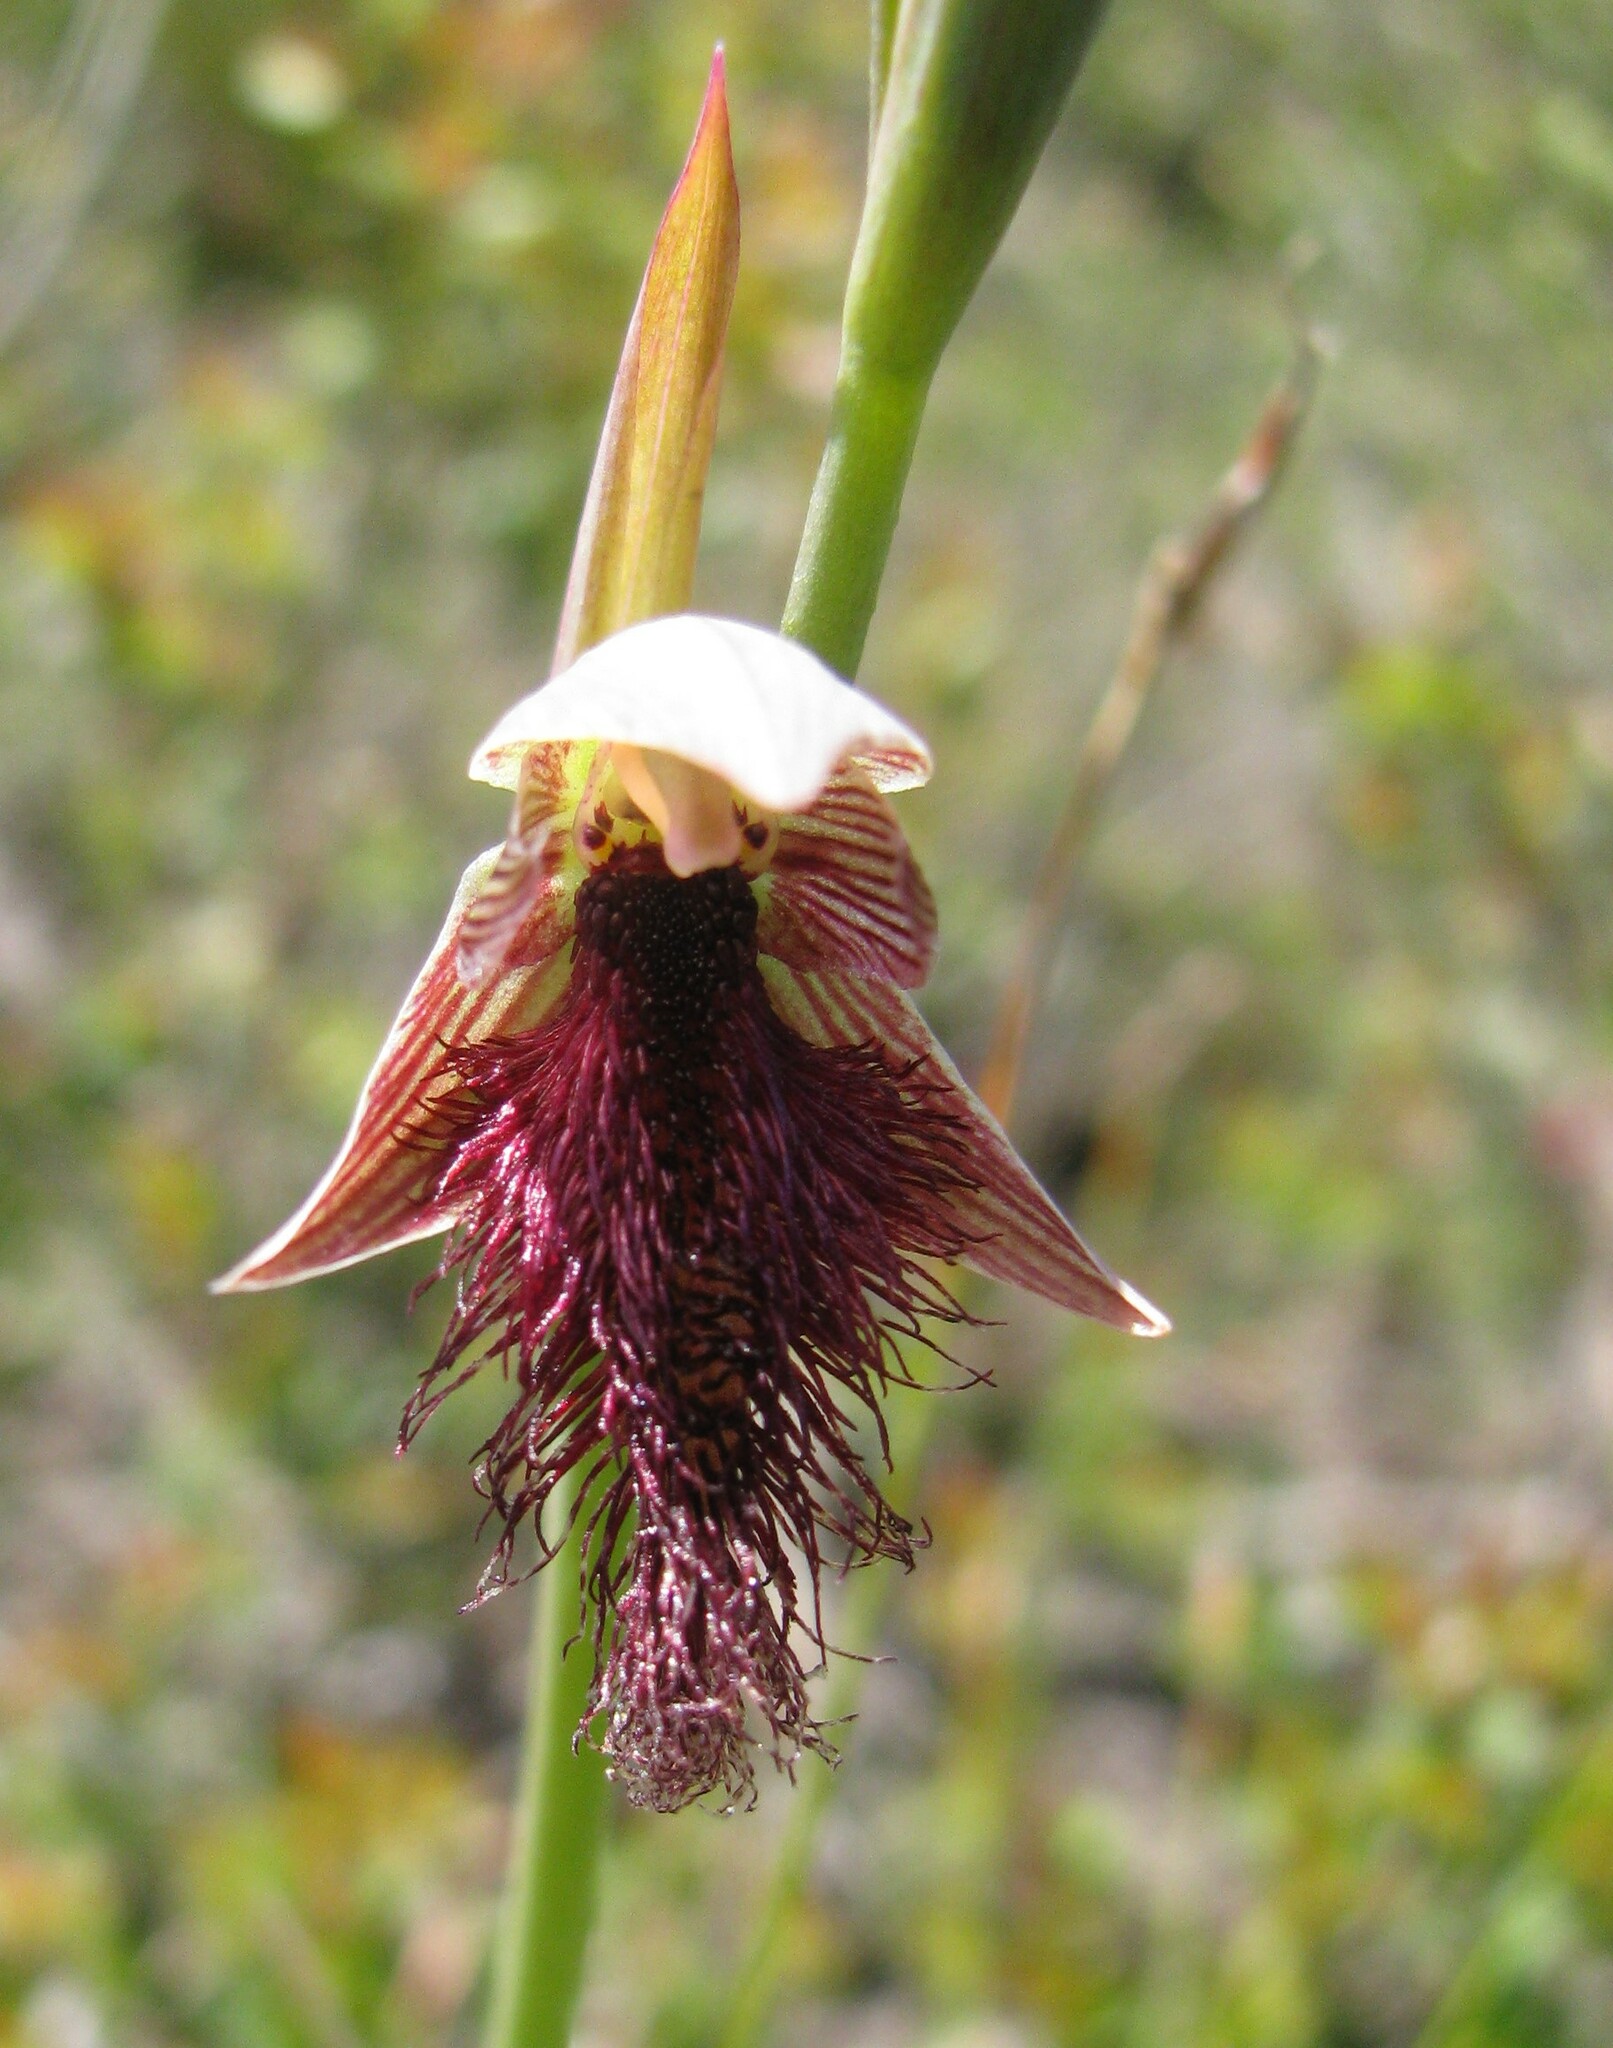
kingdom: Plantae
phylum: Tracheophyta
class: Liliopsida
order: Asparagales
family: Orchidaceae
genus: Calochilus
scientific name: Calochilus robertsonii
